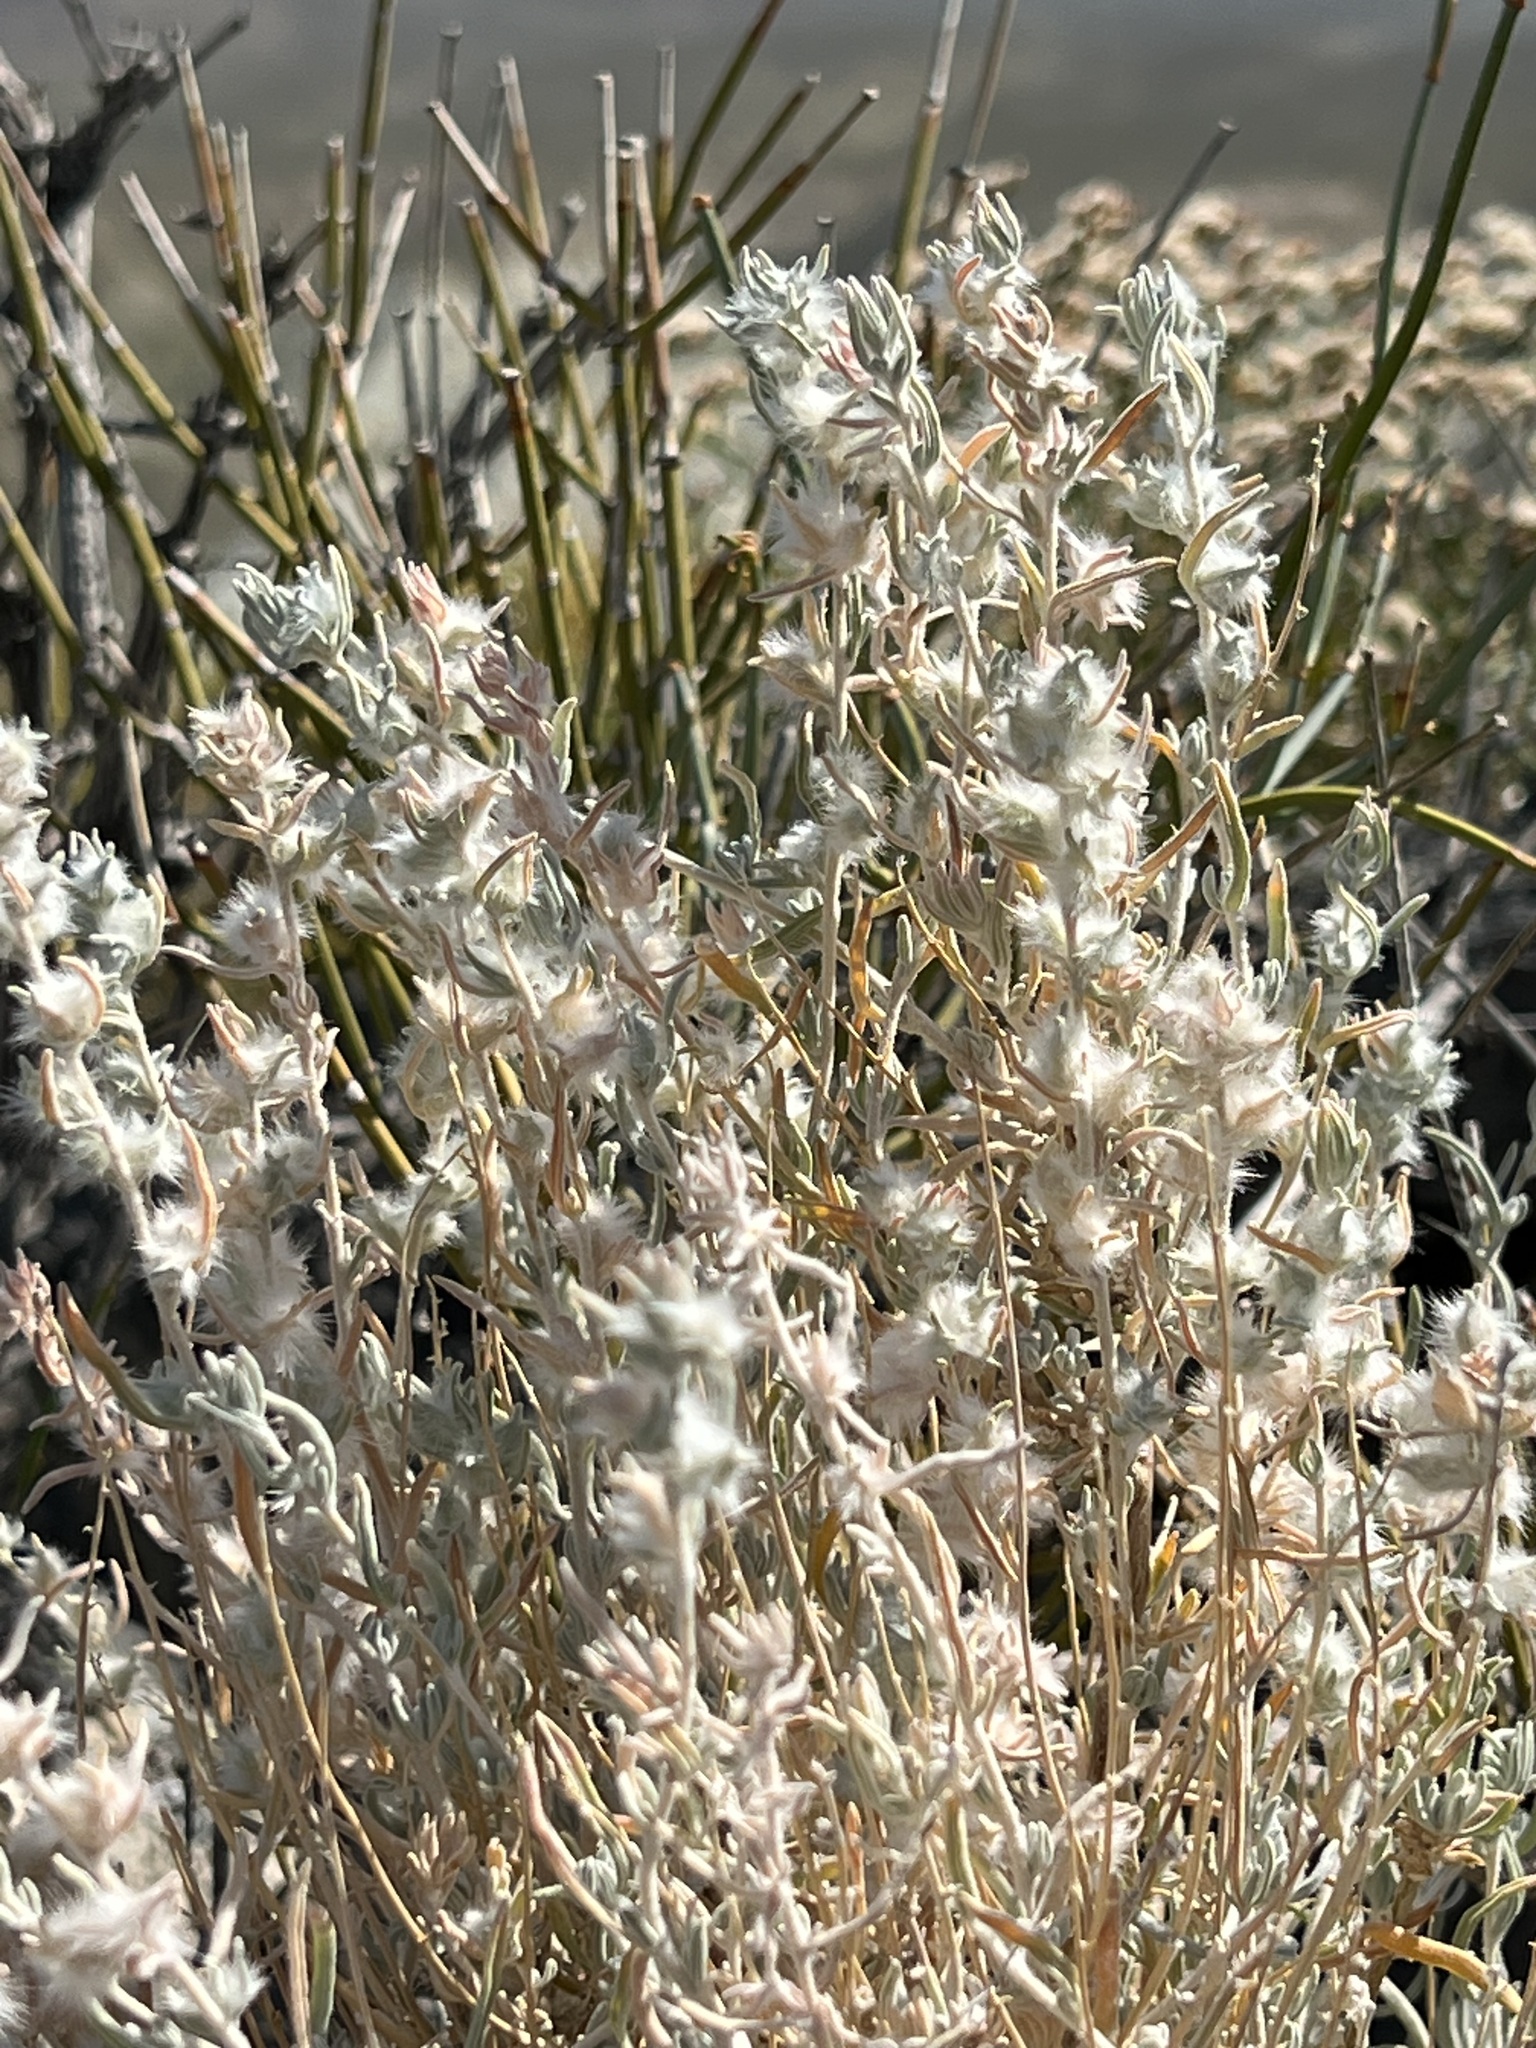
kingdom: Plantae
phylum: Tracheophyta
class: Magnoliopsida
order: Caryophyllales
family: Amaranthaceae
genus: Krascheninnikovia
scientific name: Krascheninnikovia lanata
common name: Winterfat
